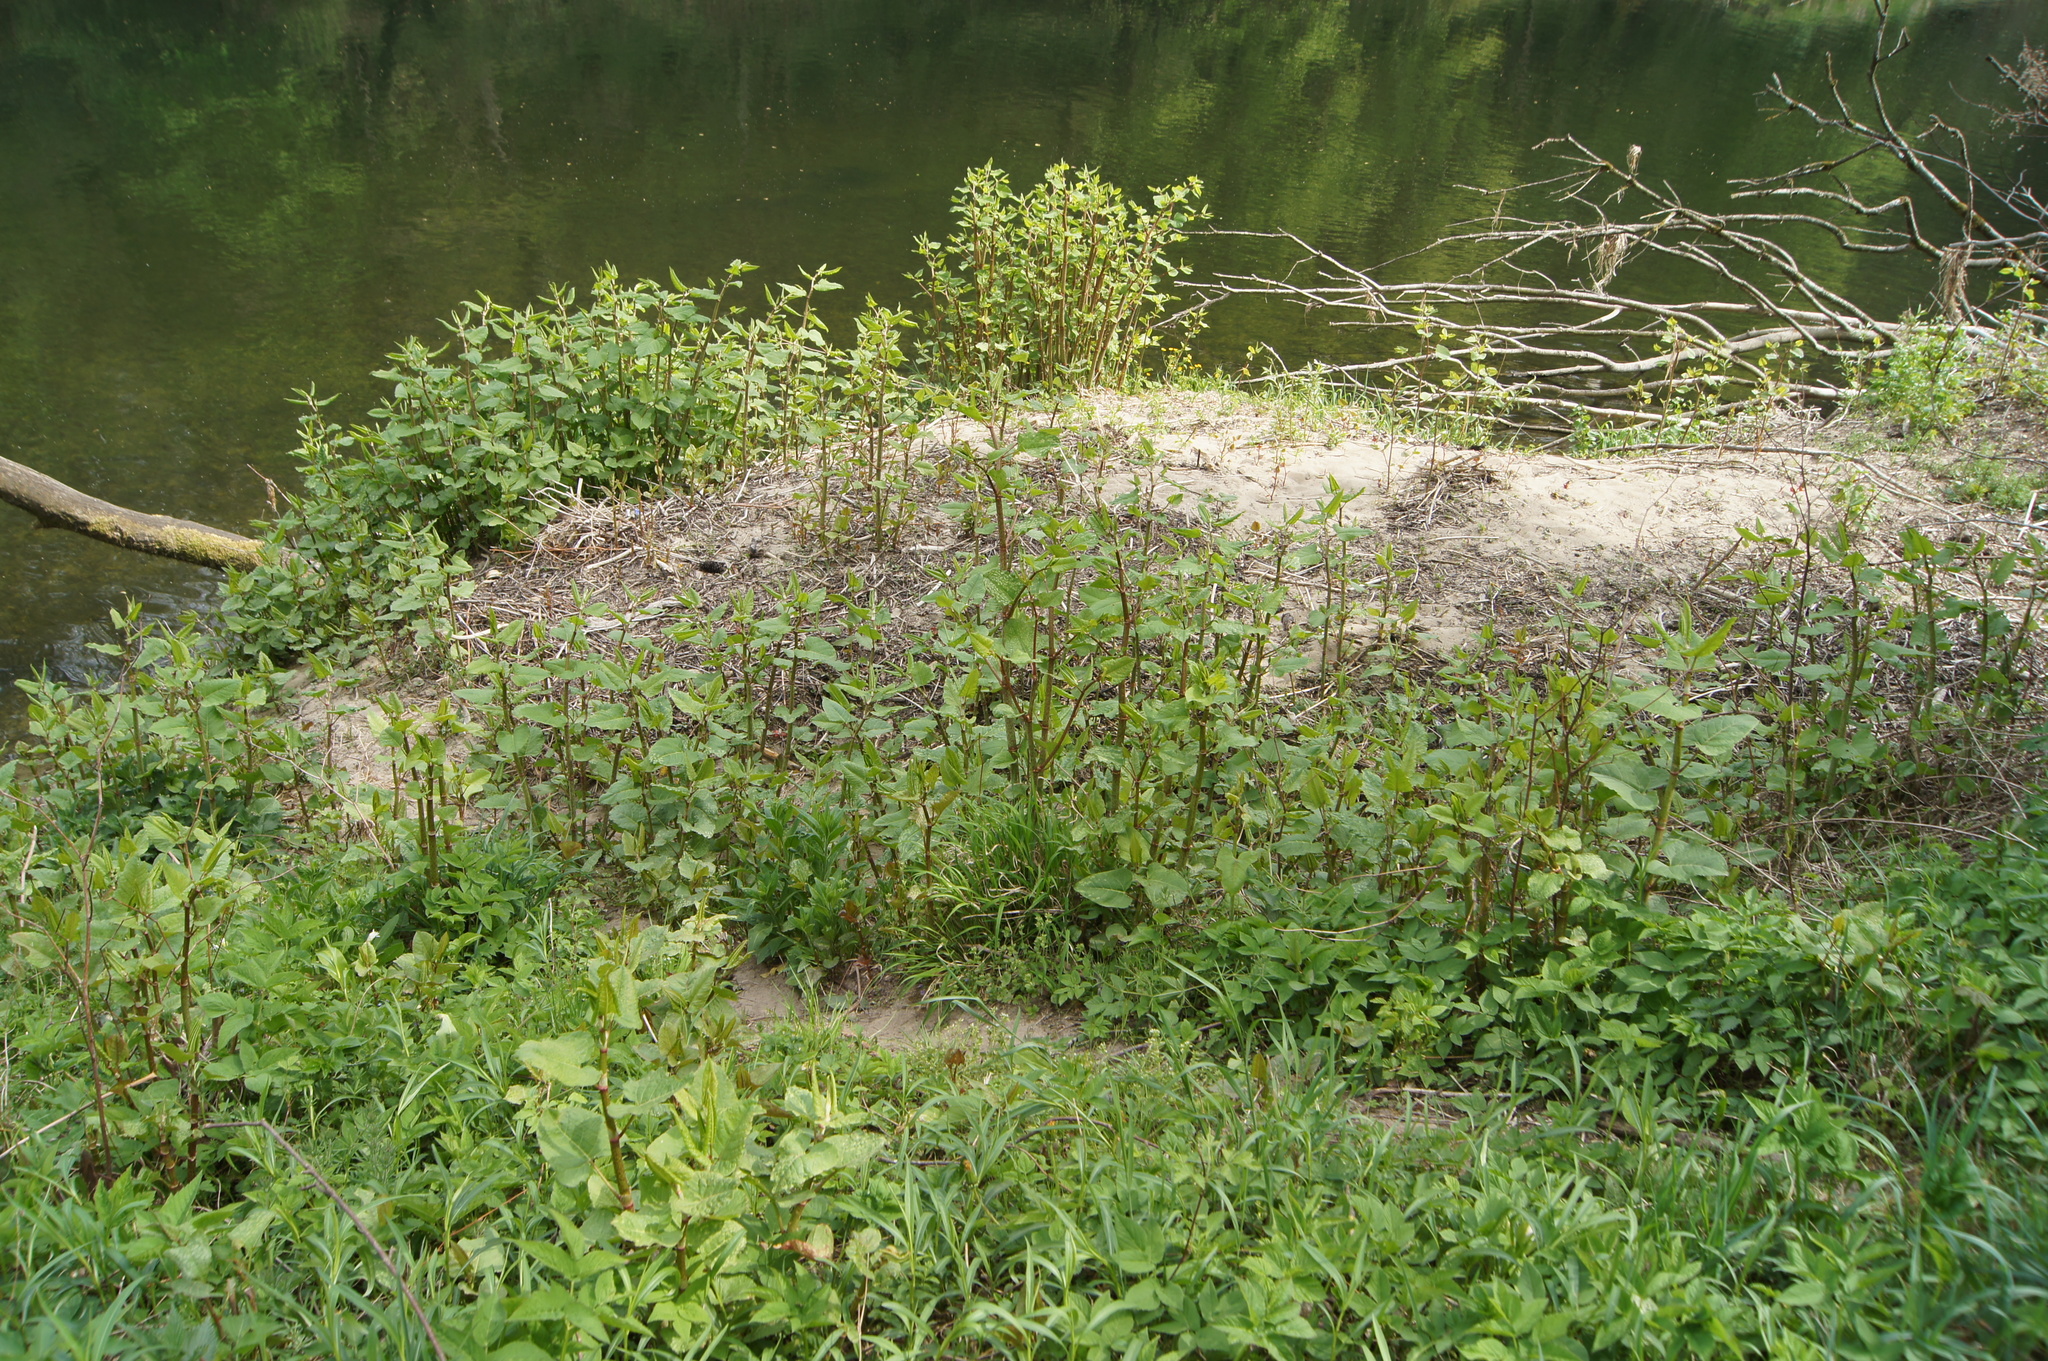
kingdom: Plantae
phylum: Tracheophyta
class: Magnoliopsida
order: Caryophyllales
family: Polygonaceae
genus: Reynoutria
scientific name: Reynoutria bohemica
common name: Bohemian knotweed
